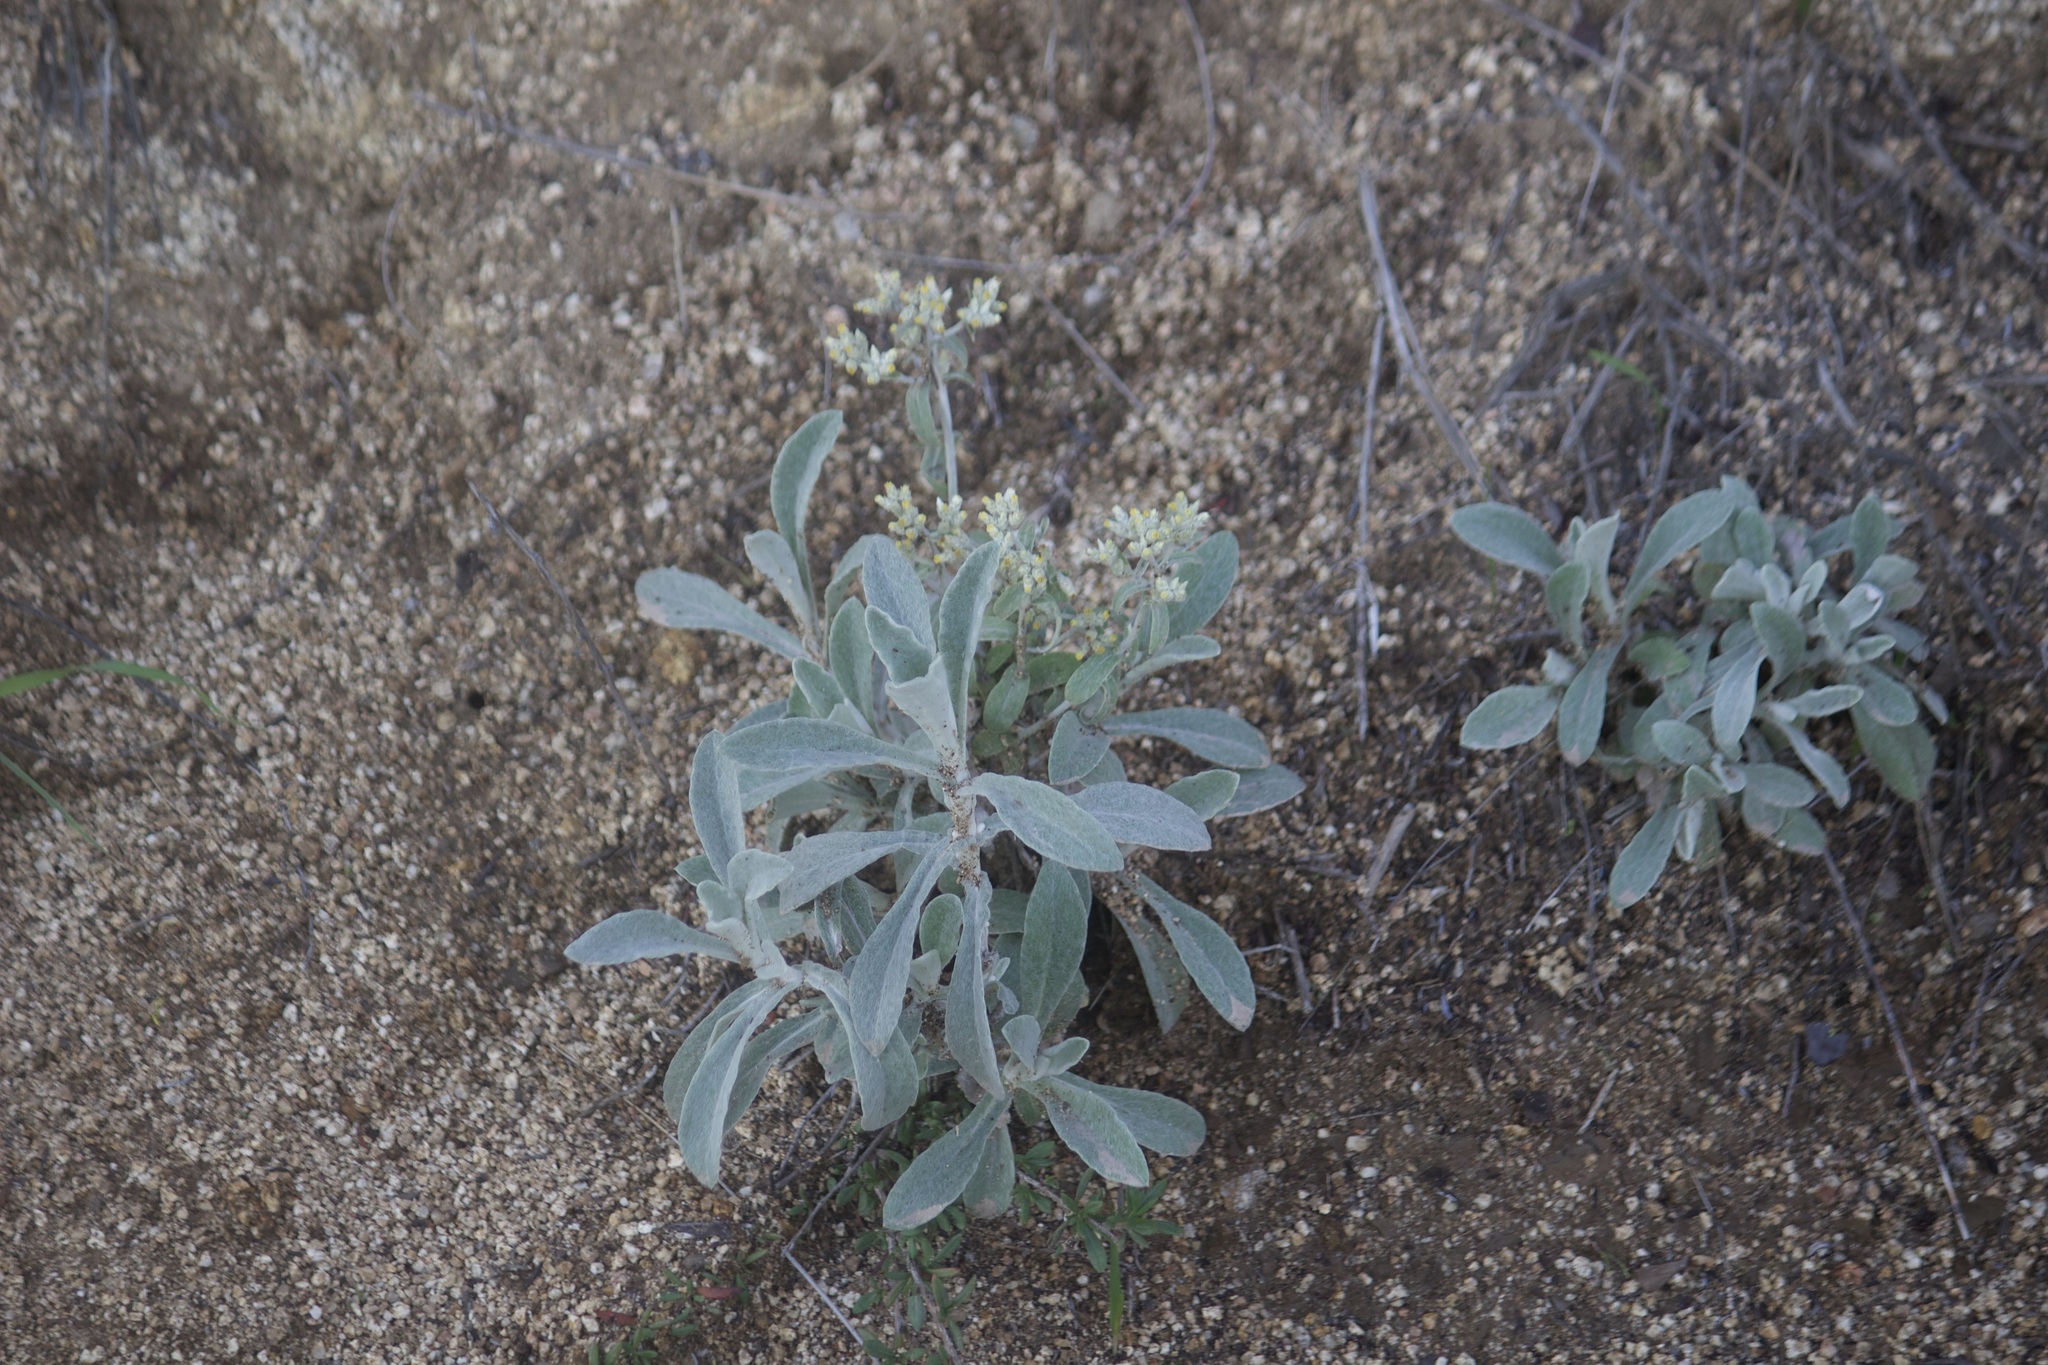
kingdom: Plantae
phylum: Tracheophyta
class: Magnoliopsida
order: Asterales
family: Asteraceae
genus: Pseudognaphalium
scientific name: Pseudognaphalium microcephalum
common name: San diego rabbit-tobacco
